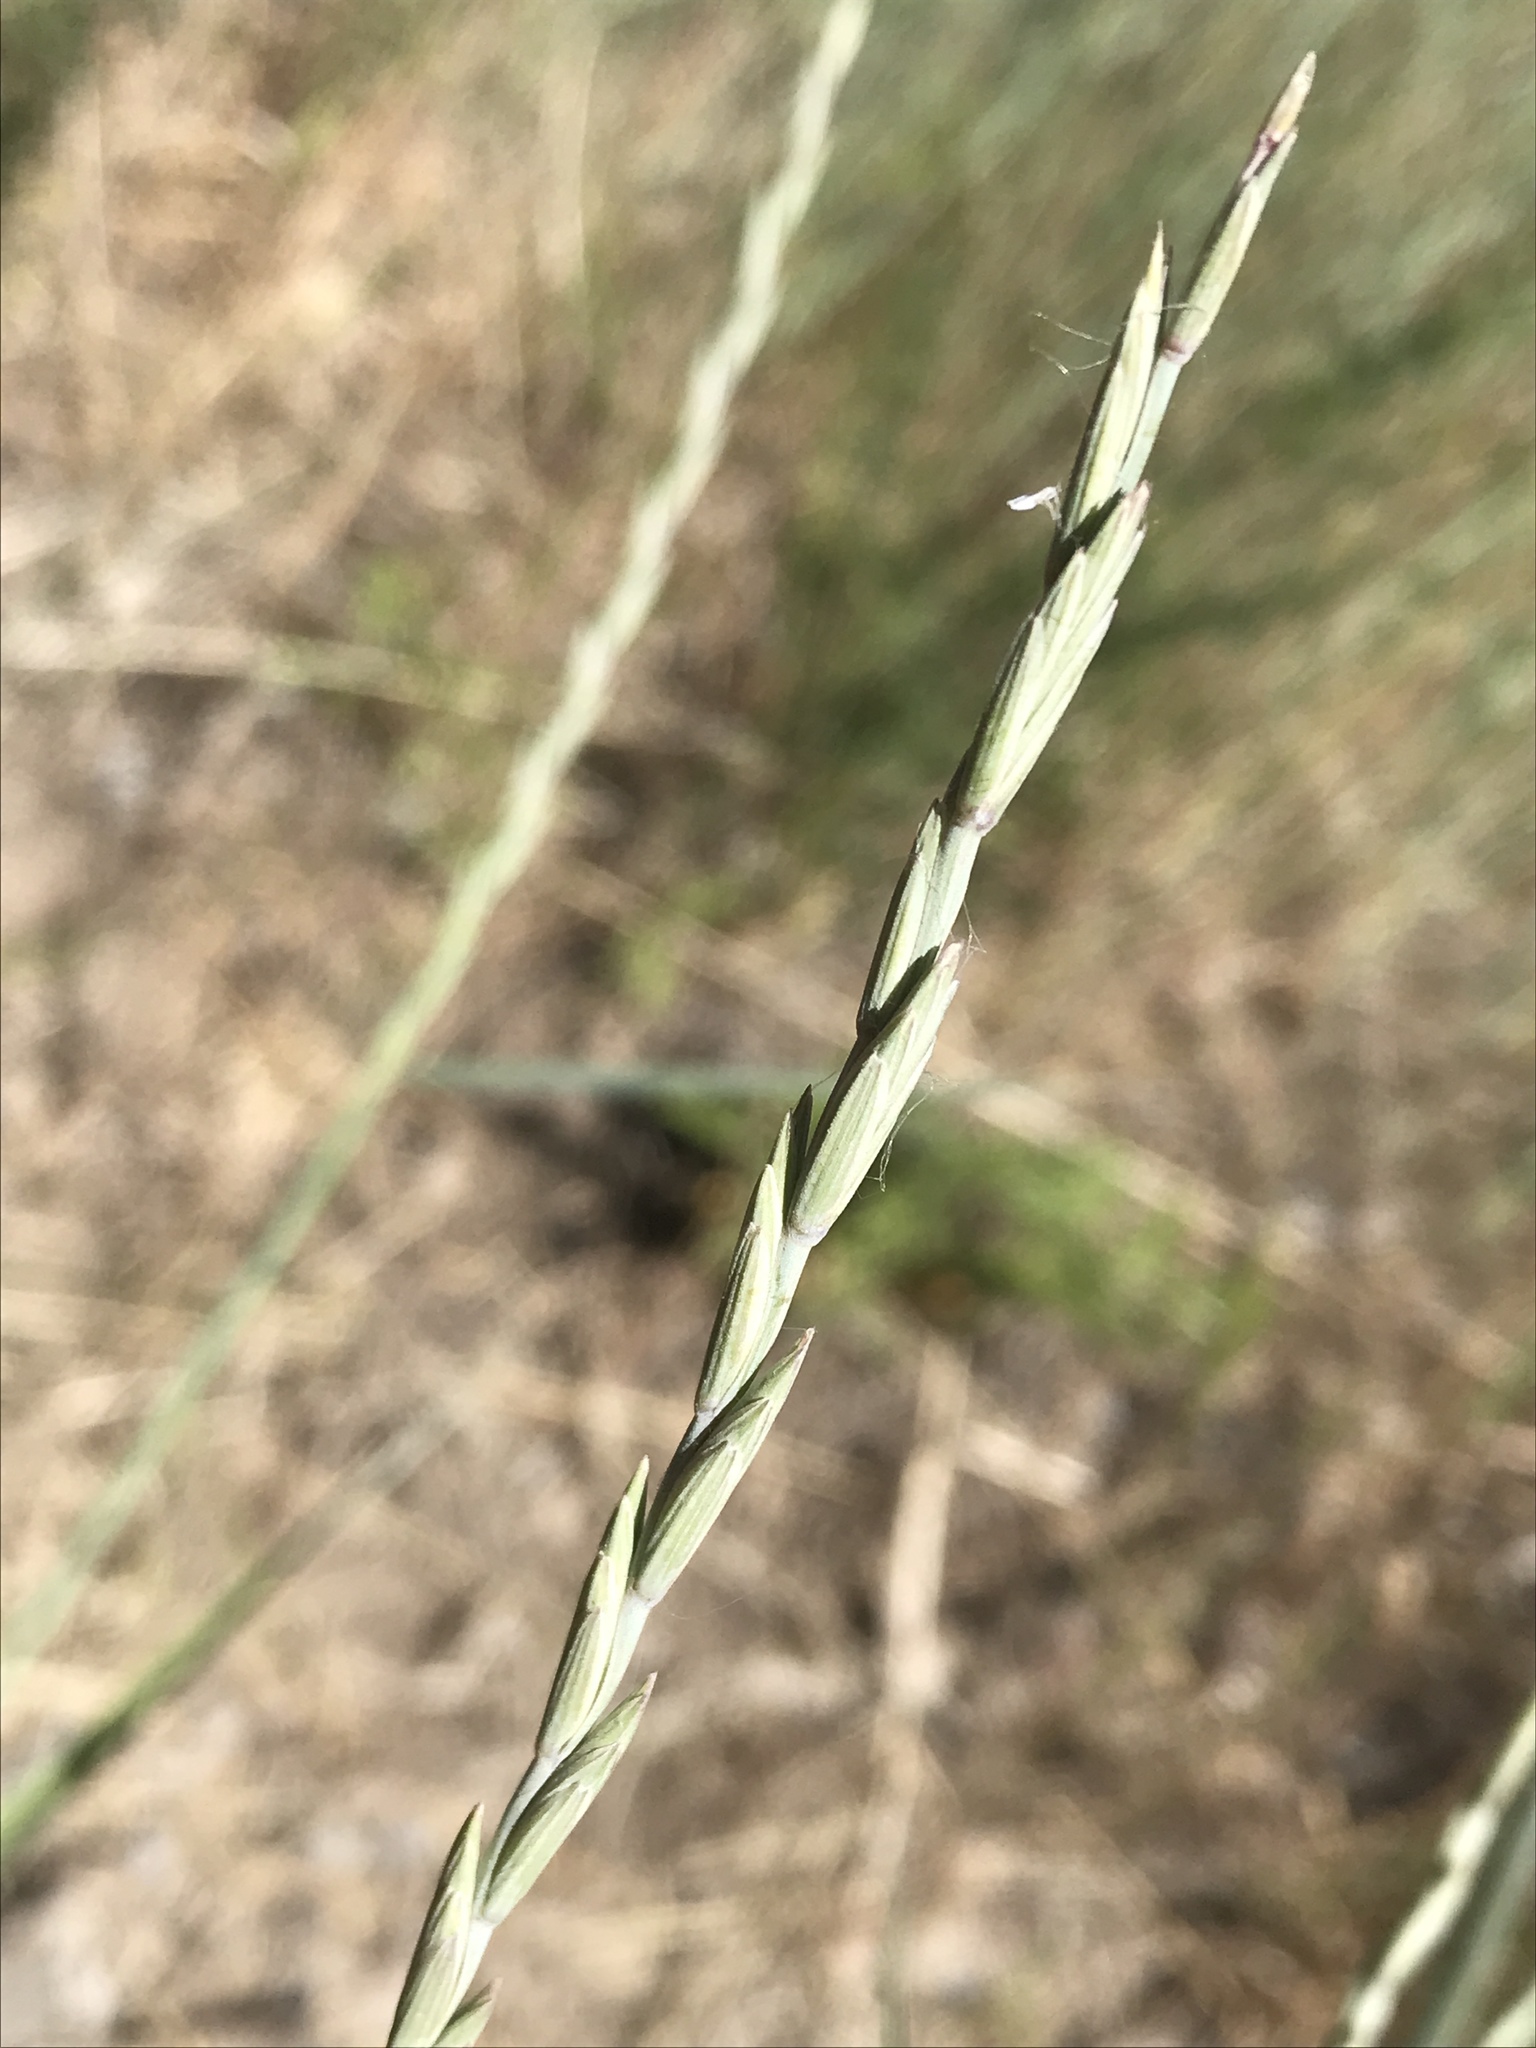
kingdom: Plantae
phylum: Tracheophyta
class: Liliopsida
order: Poales
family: Poaceae
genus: Thinopyrum
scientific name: Thinopyrum intermedium
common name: Intermediate wheatgrass
